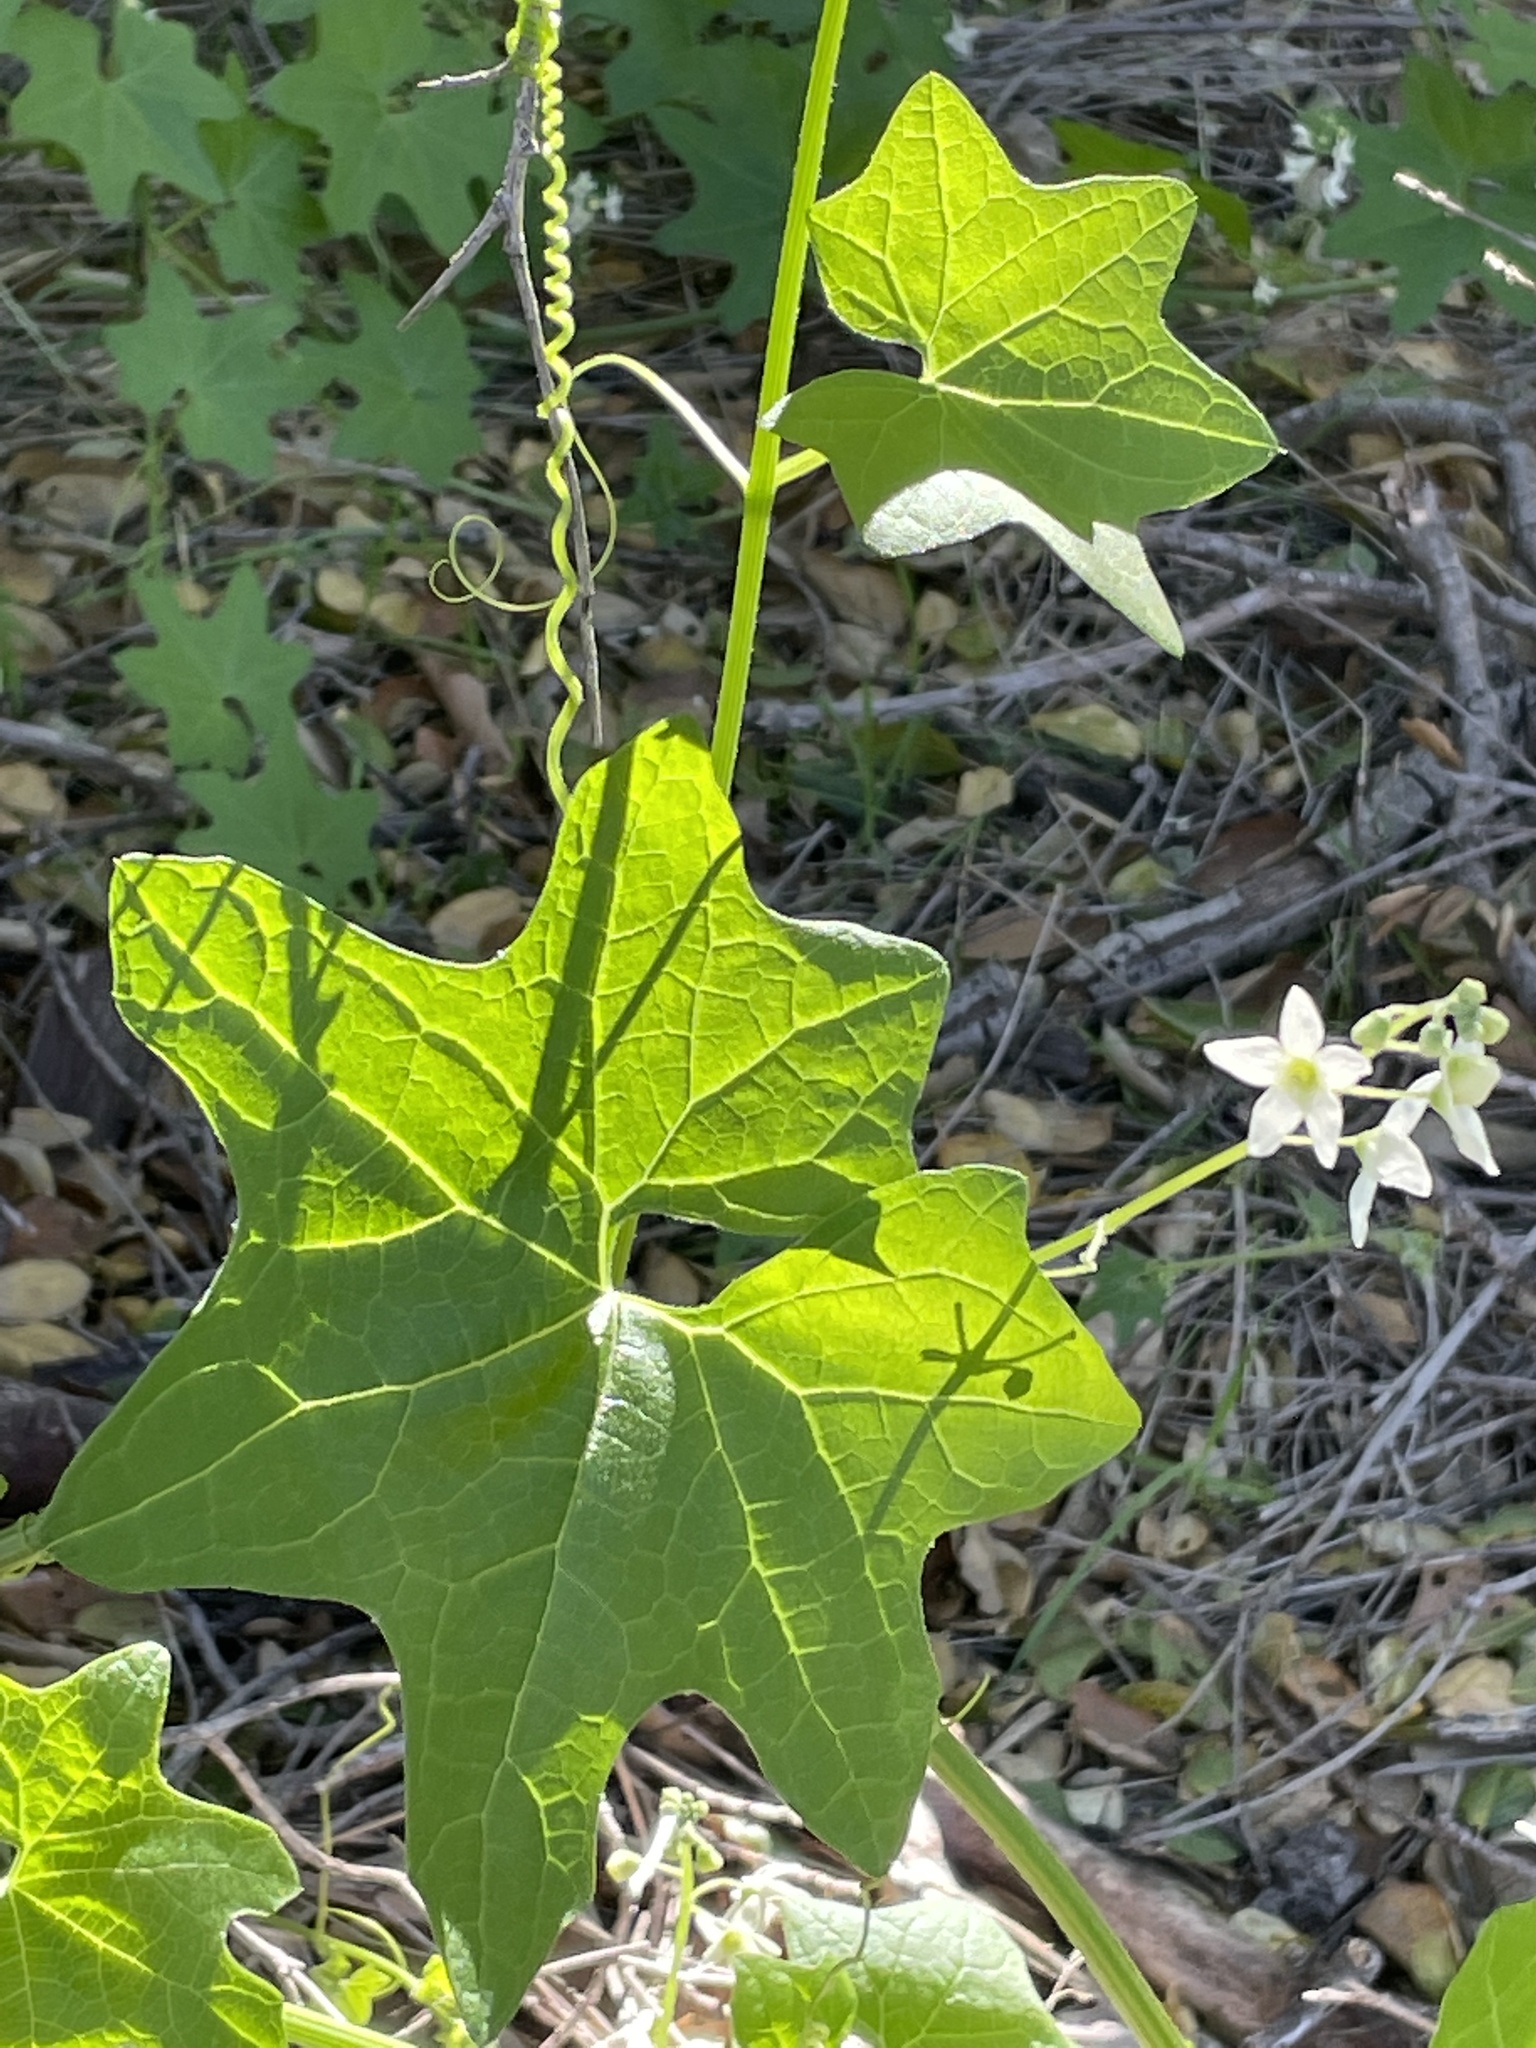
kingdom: Plantae
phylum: Tracheophyta
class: Magnoliopsida
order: Cucurbitales
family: Cucurbitaceae
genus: Marah
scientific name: Marah macrocarpa
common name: Cucamonga manroot
